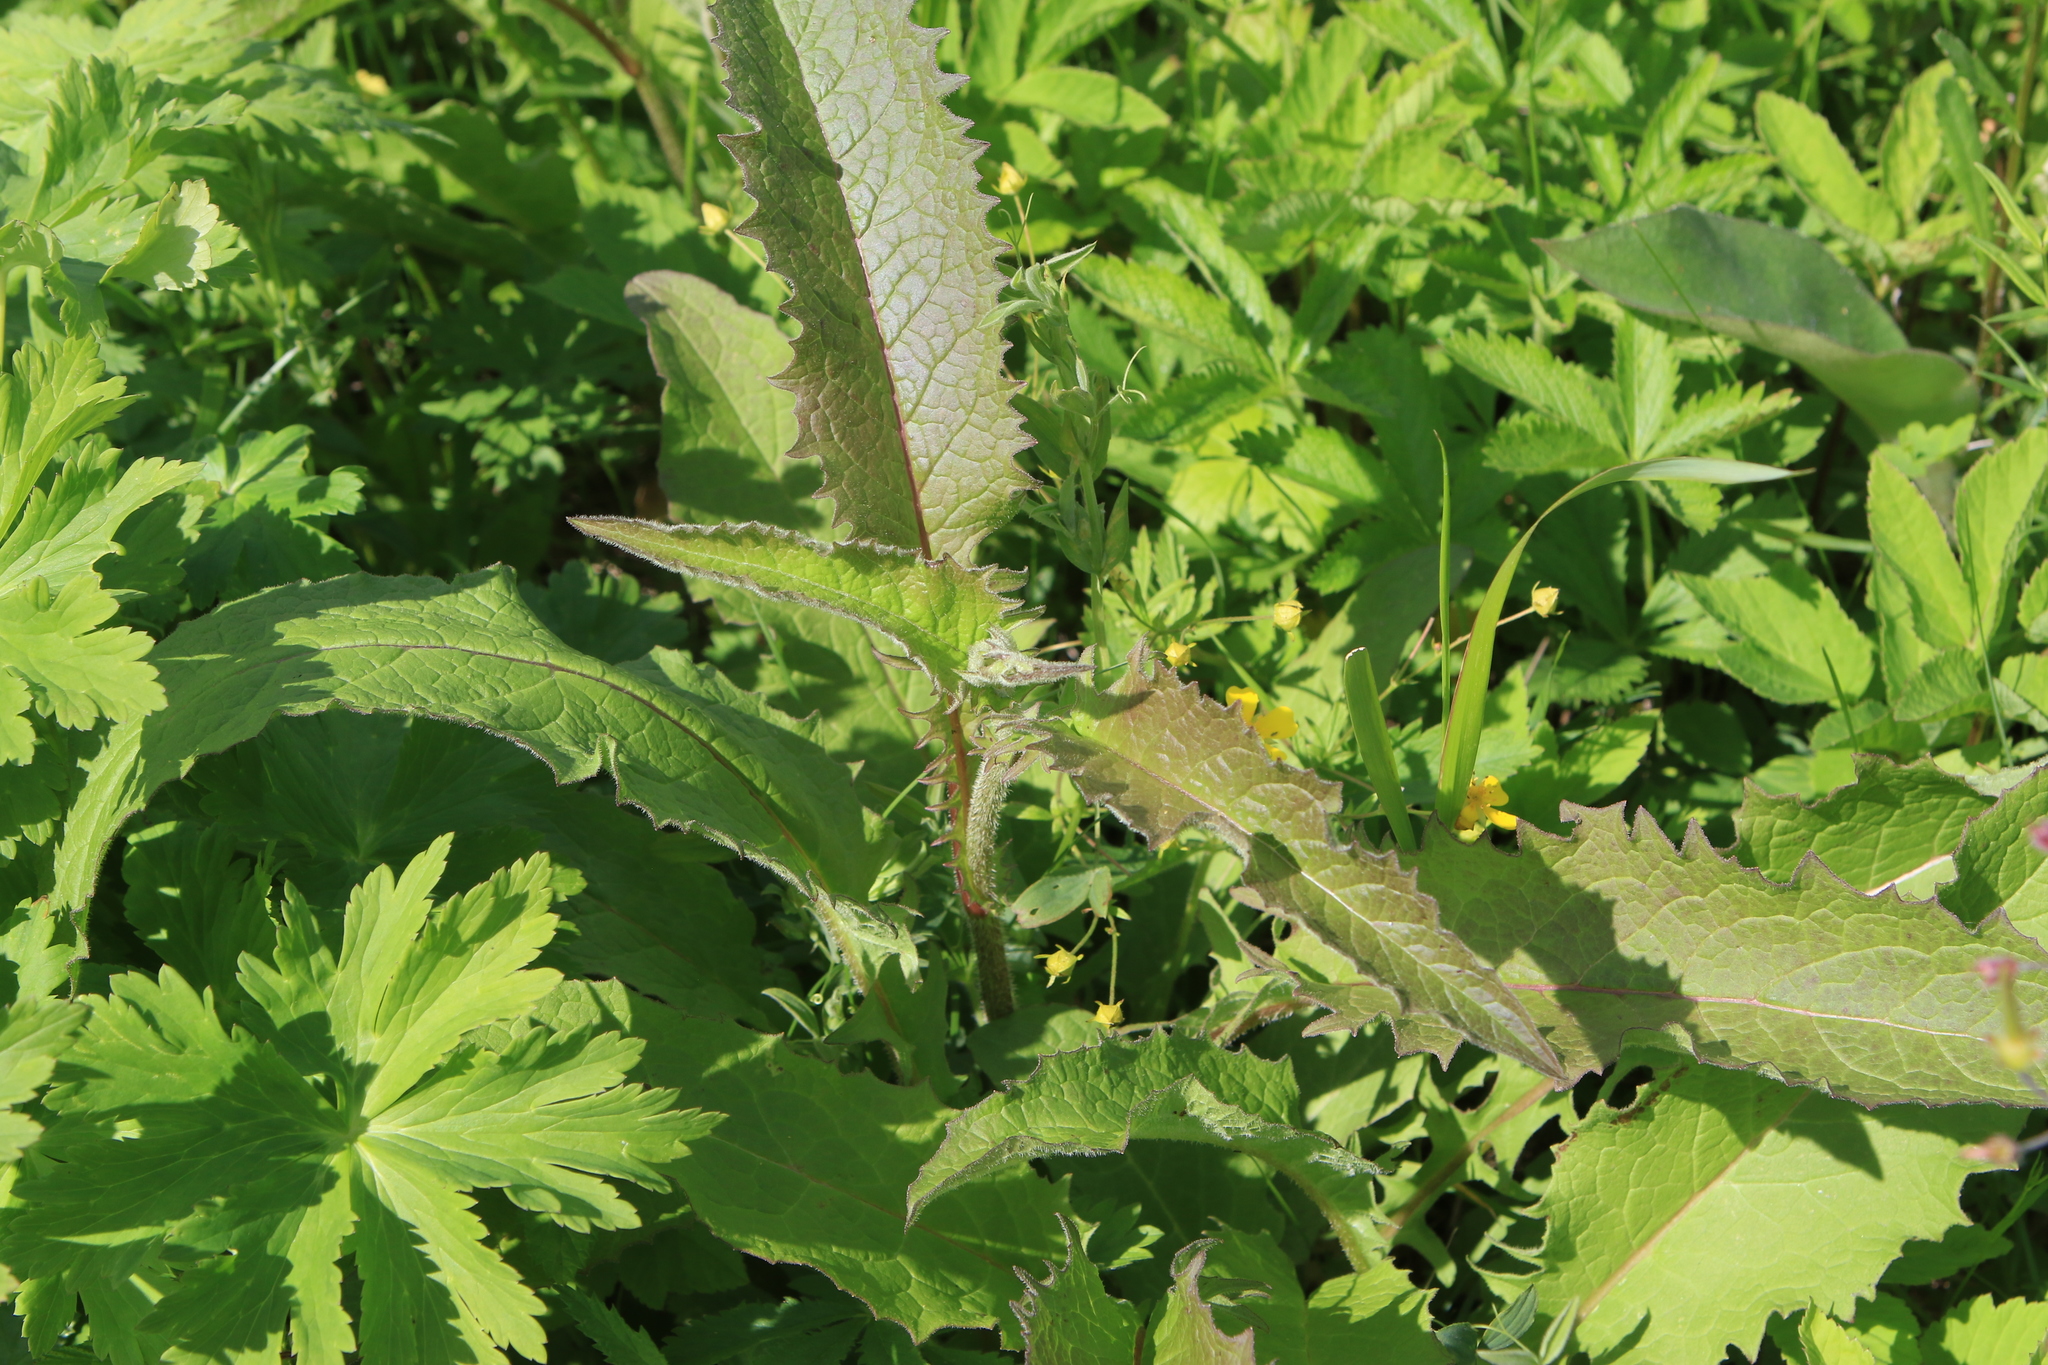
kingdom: Plantae
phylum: Tracheophyta
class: Magnoliopsida
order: Asterales
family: Asteraceae
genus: Crepis
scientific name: Crepis sibirica
